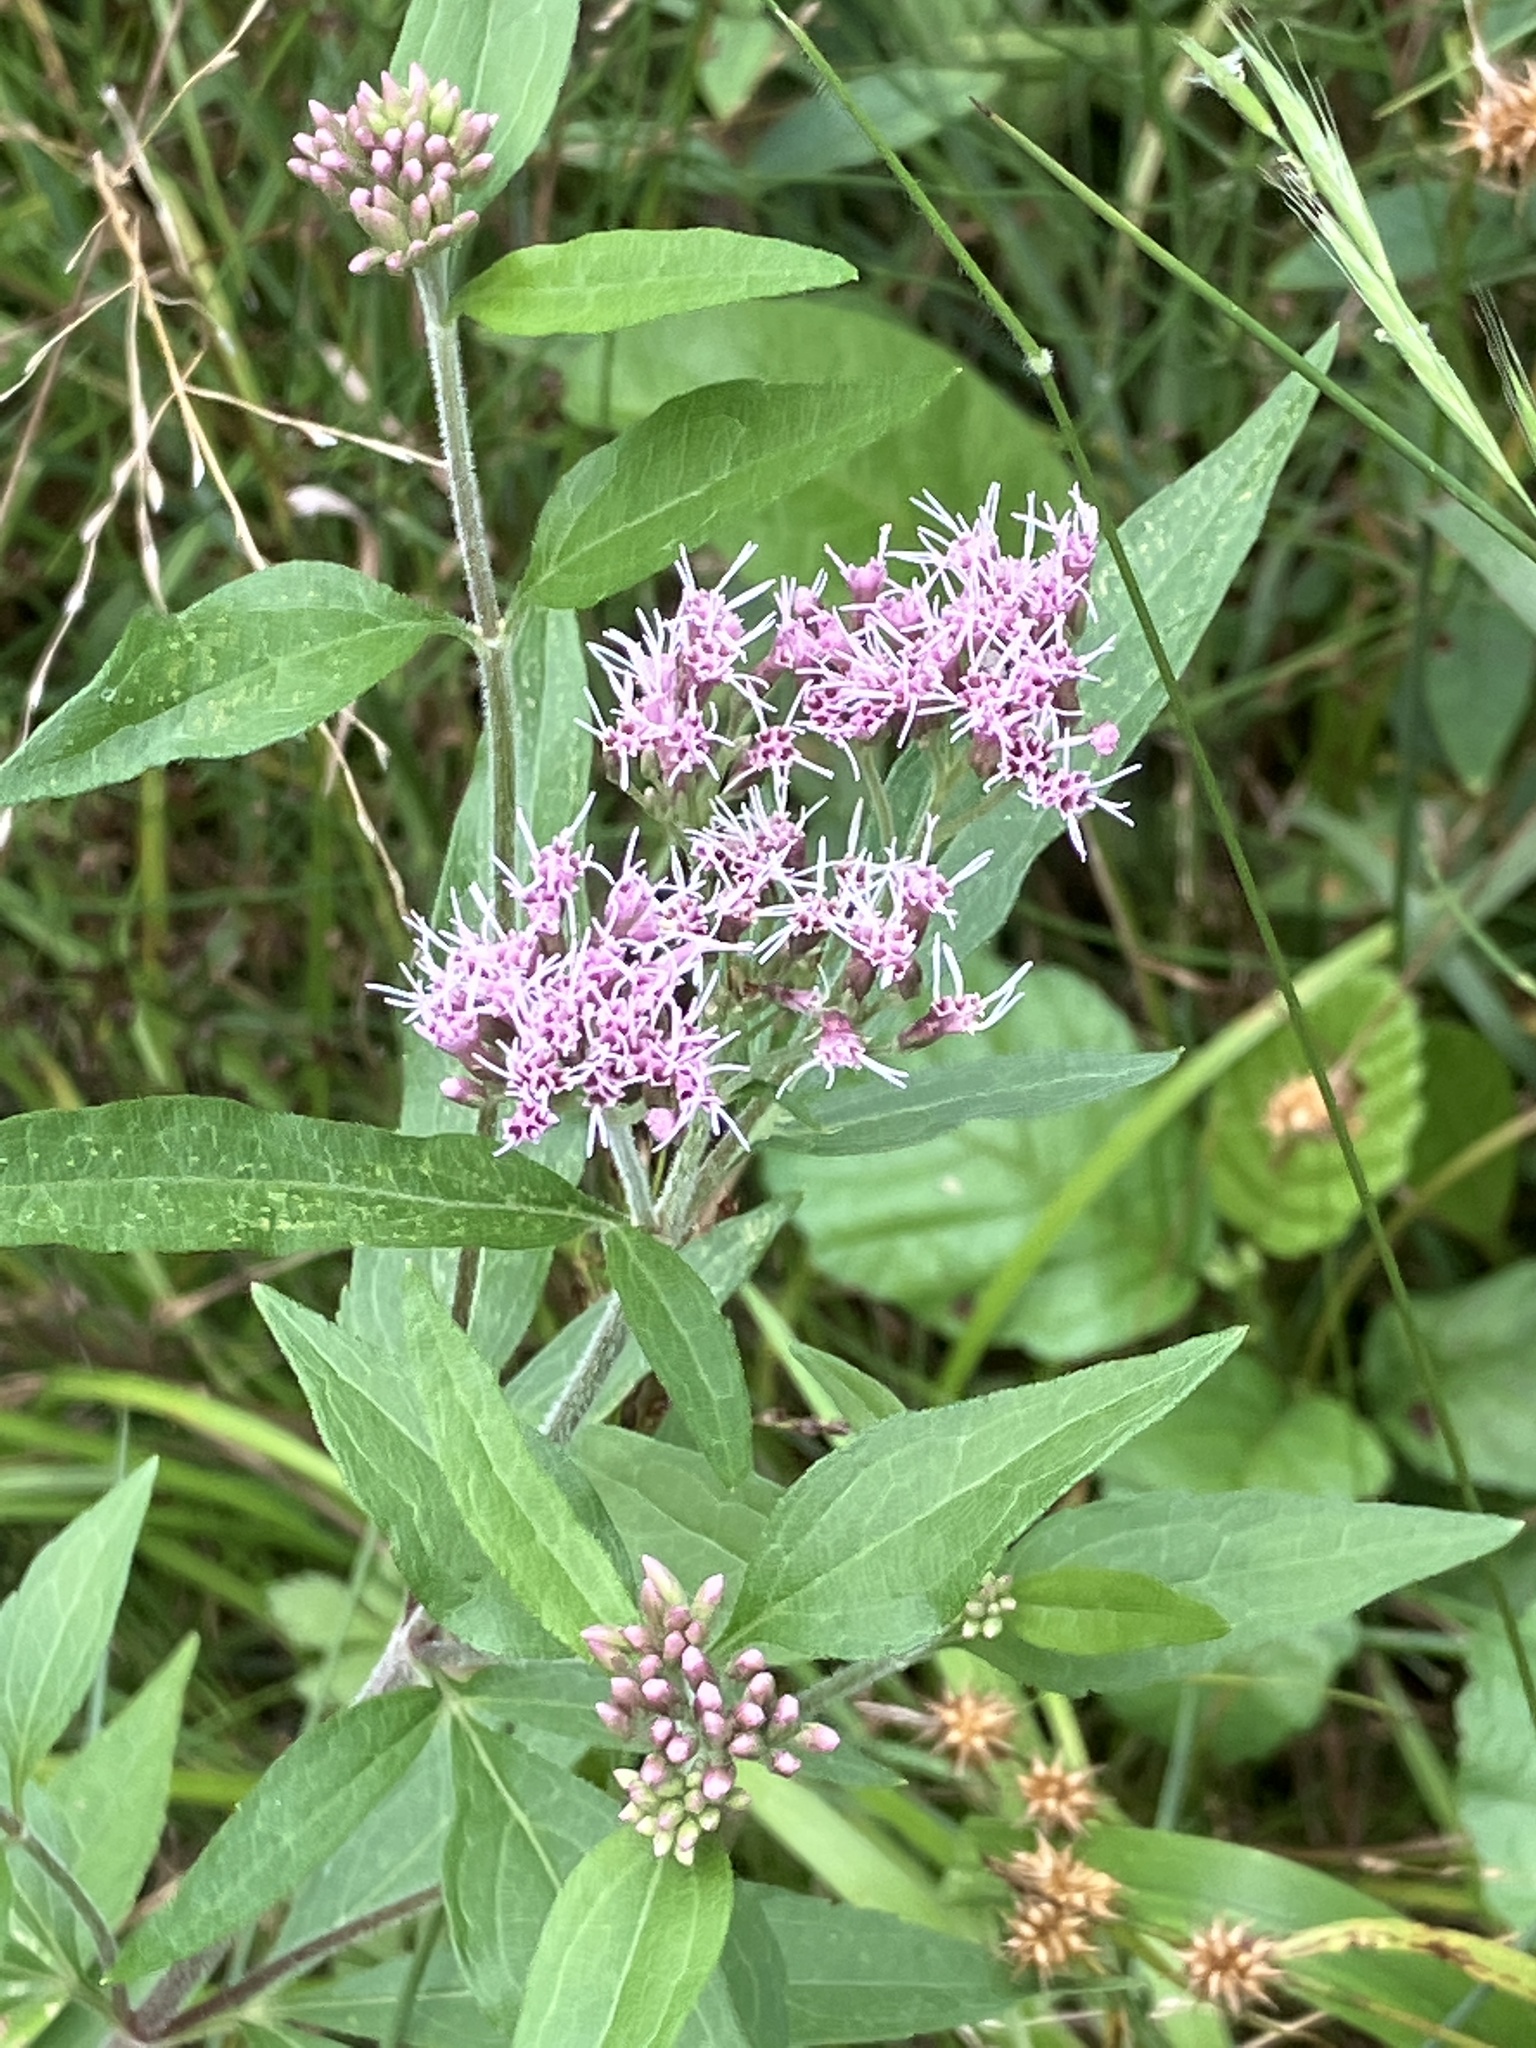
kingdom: Plantae
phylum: Tracheophyta
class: Magnoliopsida
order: Asterales
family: Asteraceae
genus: Eupatorium
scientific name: Eupatorium cannabinum
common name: Hemp-agrimony
